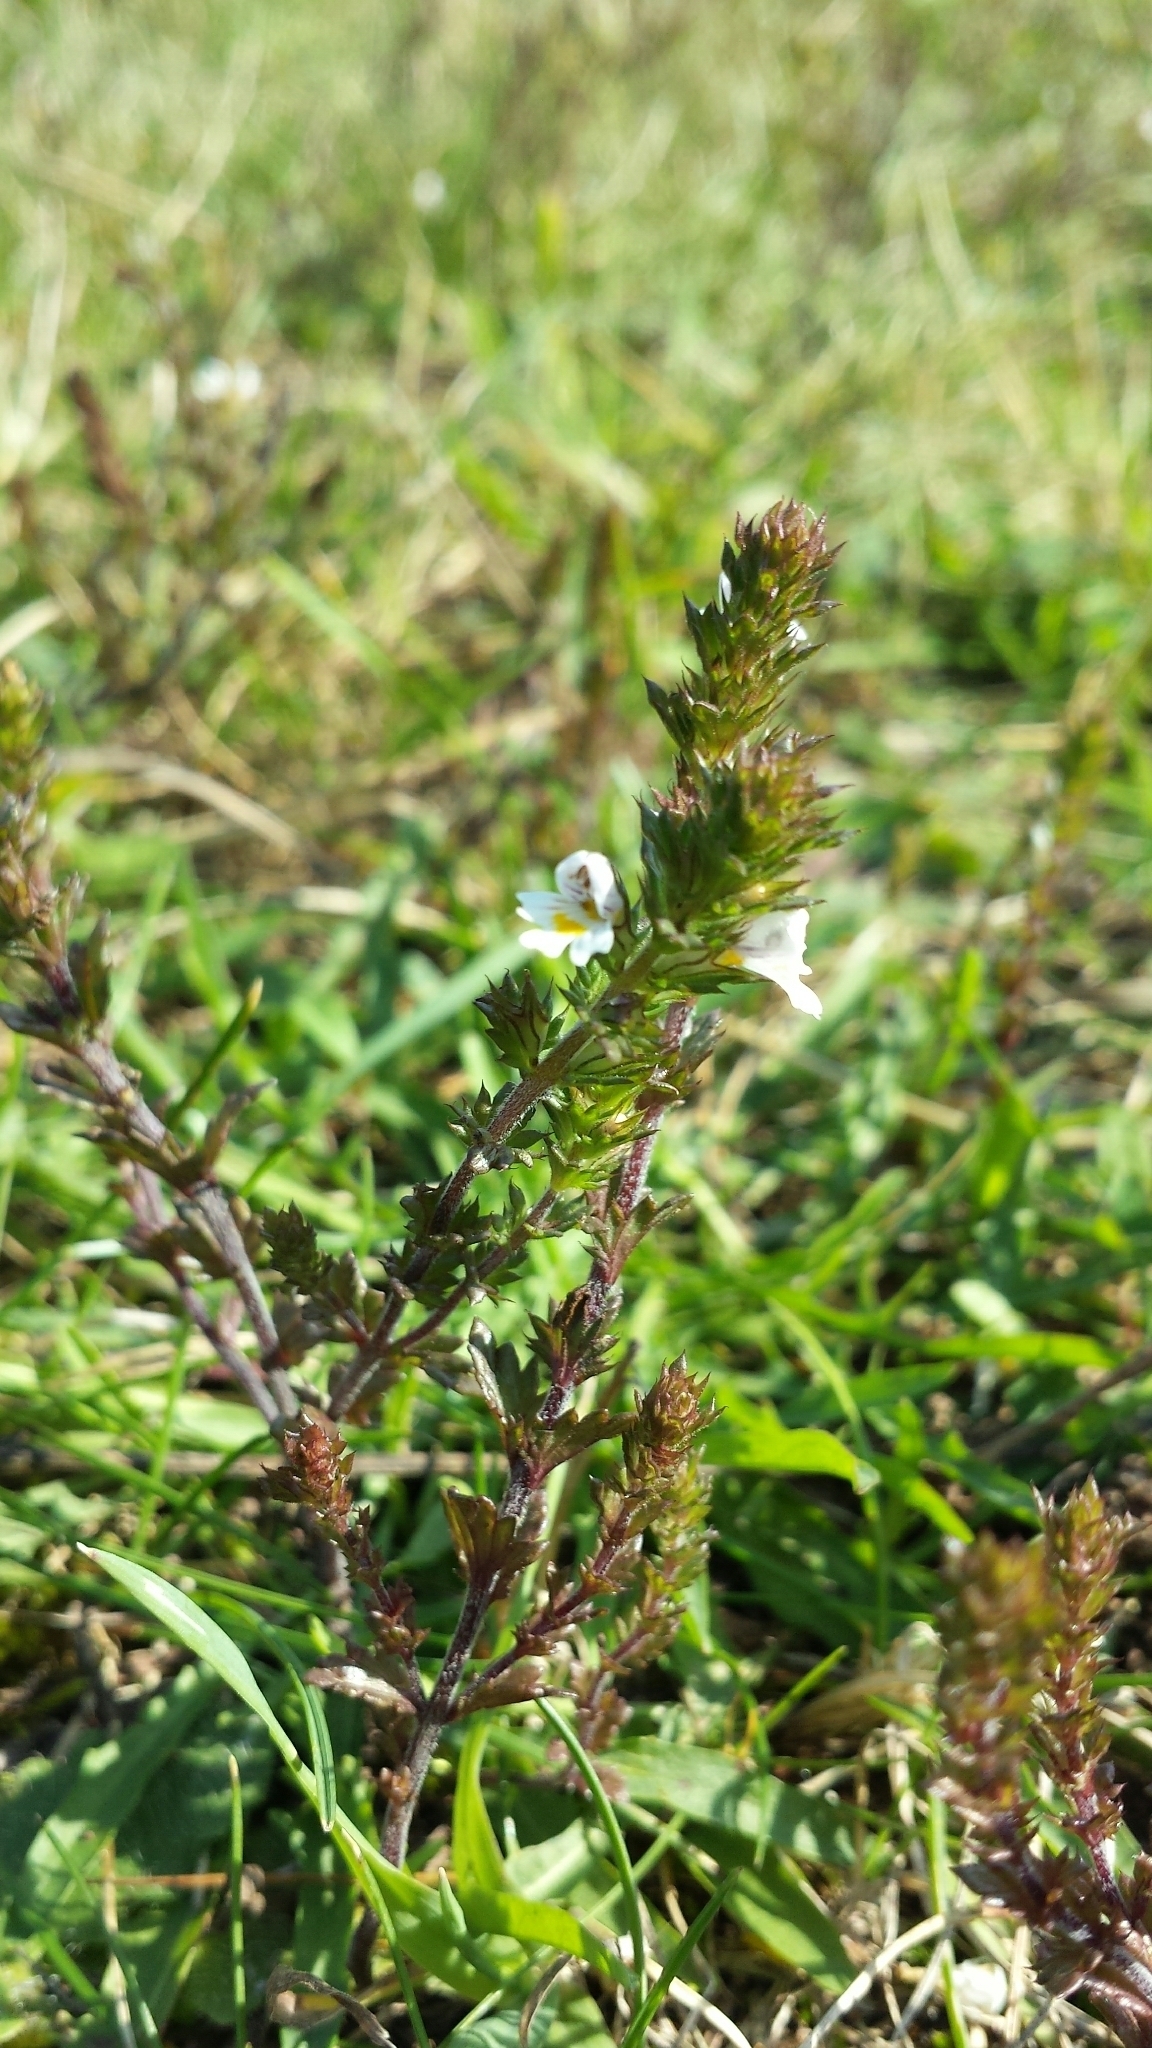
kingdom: Plantae
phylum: Tracheophyta
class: Magnoliopsida
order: Lamiales
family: Orobanchaceae
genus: Euphrasia
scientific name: Euphrasia nemorosa
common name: Common eyebright
